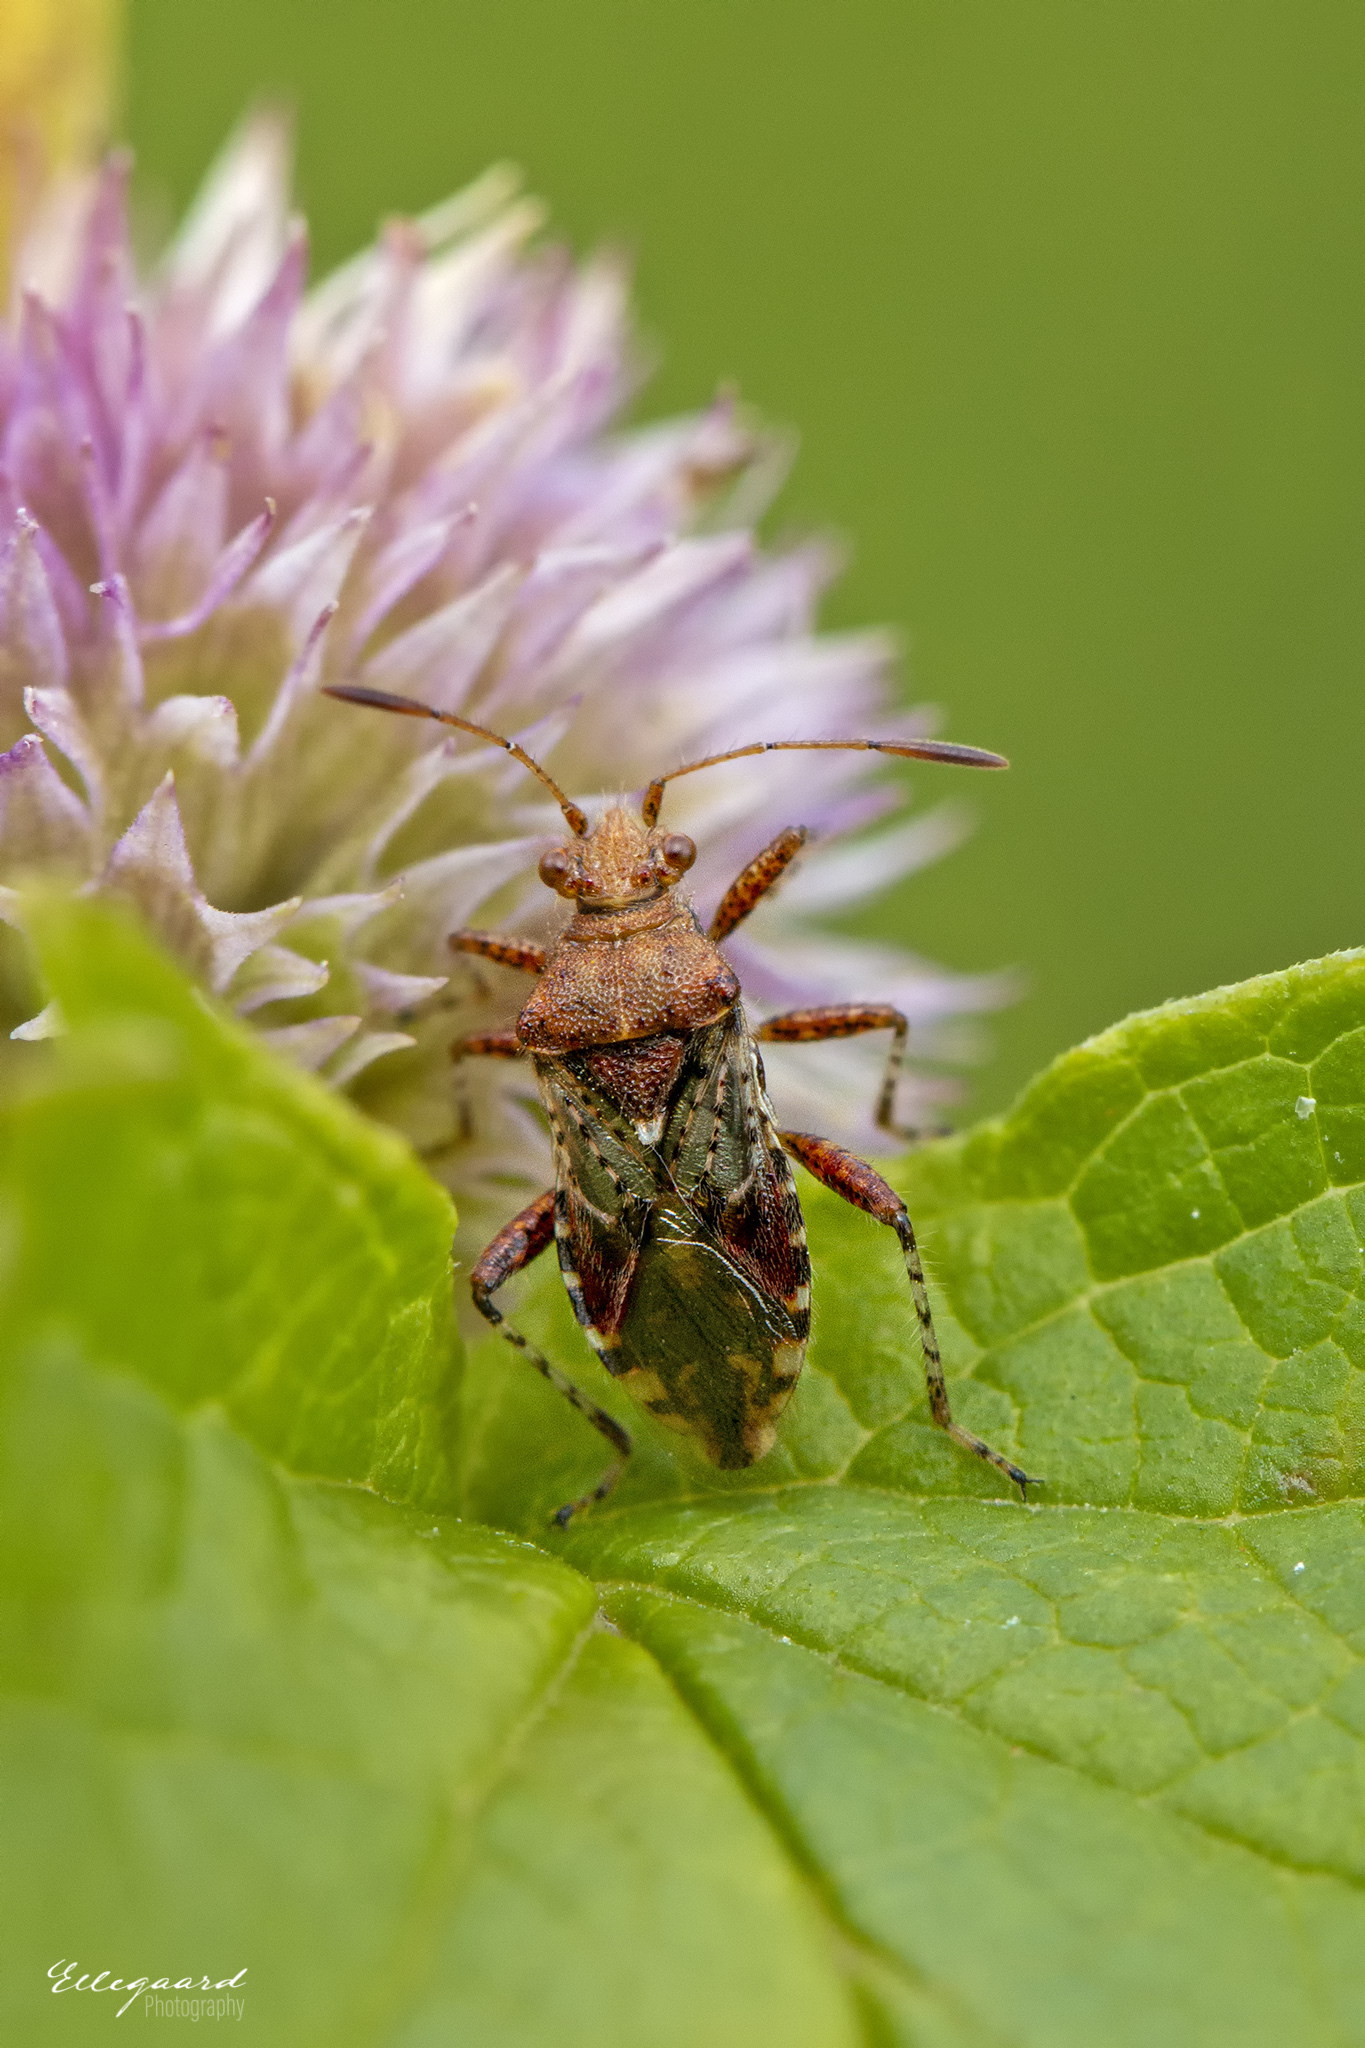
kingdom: Animalia
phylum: Arthropoda
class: Insecta
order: Hemiptera
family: Rhopalidae
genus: Rhopalus
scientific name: Rhopalus subrufus
